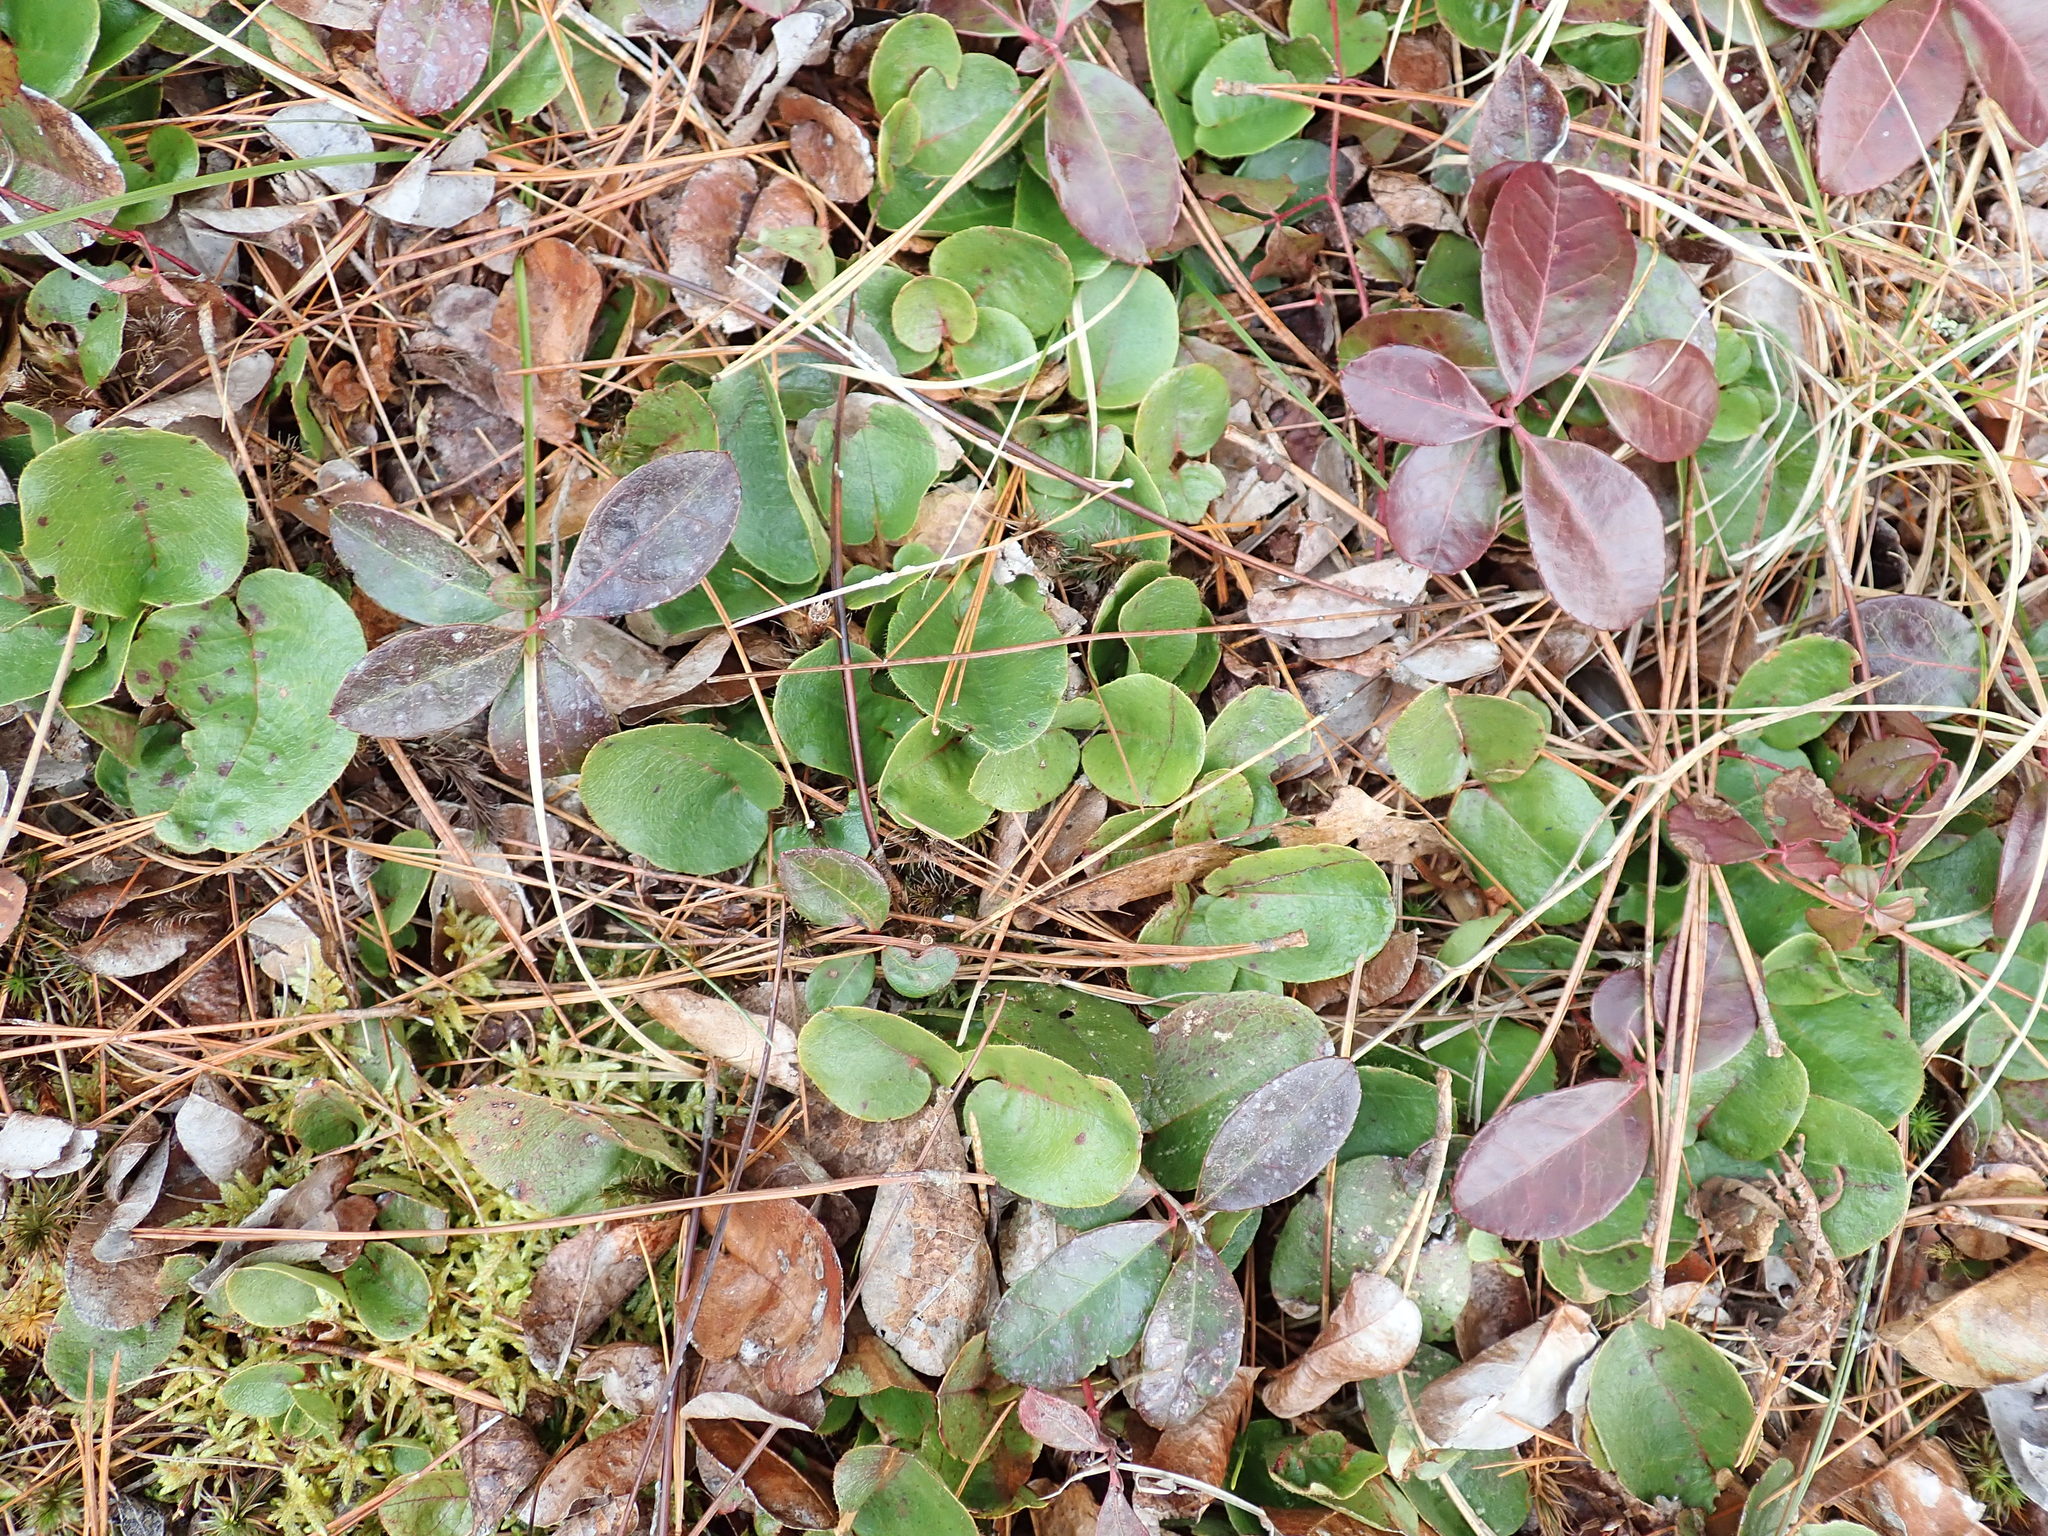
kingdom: Plantae
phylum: Tracheophyta
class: Magnoliopsida
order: Ericales
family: Ericaceae
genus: Epigaea
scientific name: Epigaea repens
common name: Gravelroot
